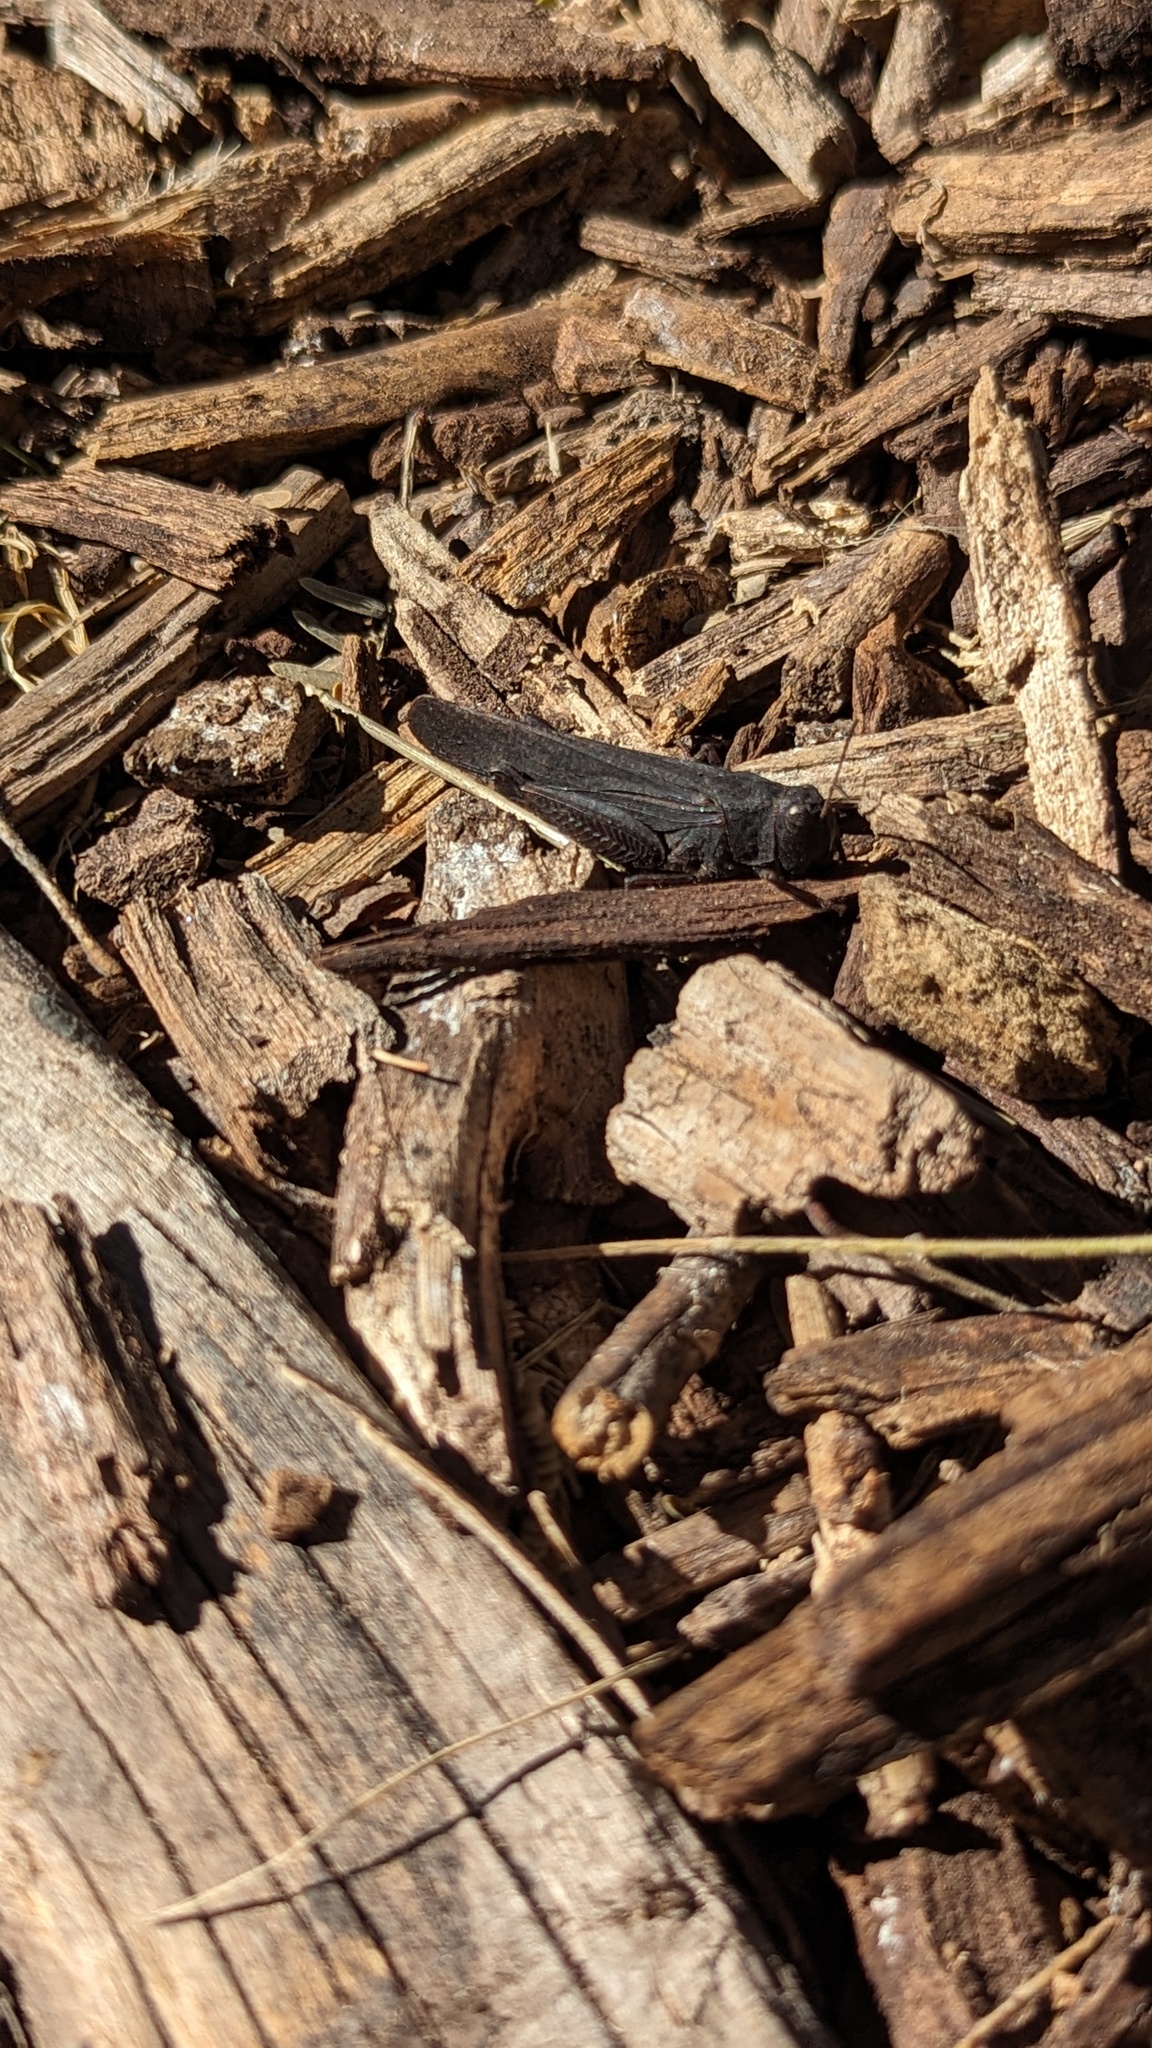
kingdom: Animalia
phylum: Arthropoda
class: Insecta
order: Orthoptera
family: Acrididae
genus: Arphia
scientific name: Arphia pseudo-nietana
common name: Red-winged grasshopper
